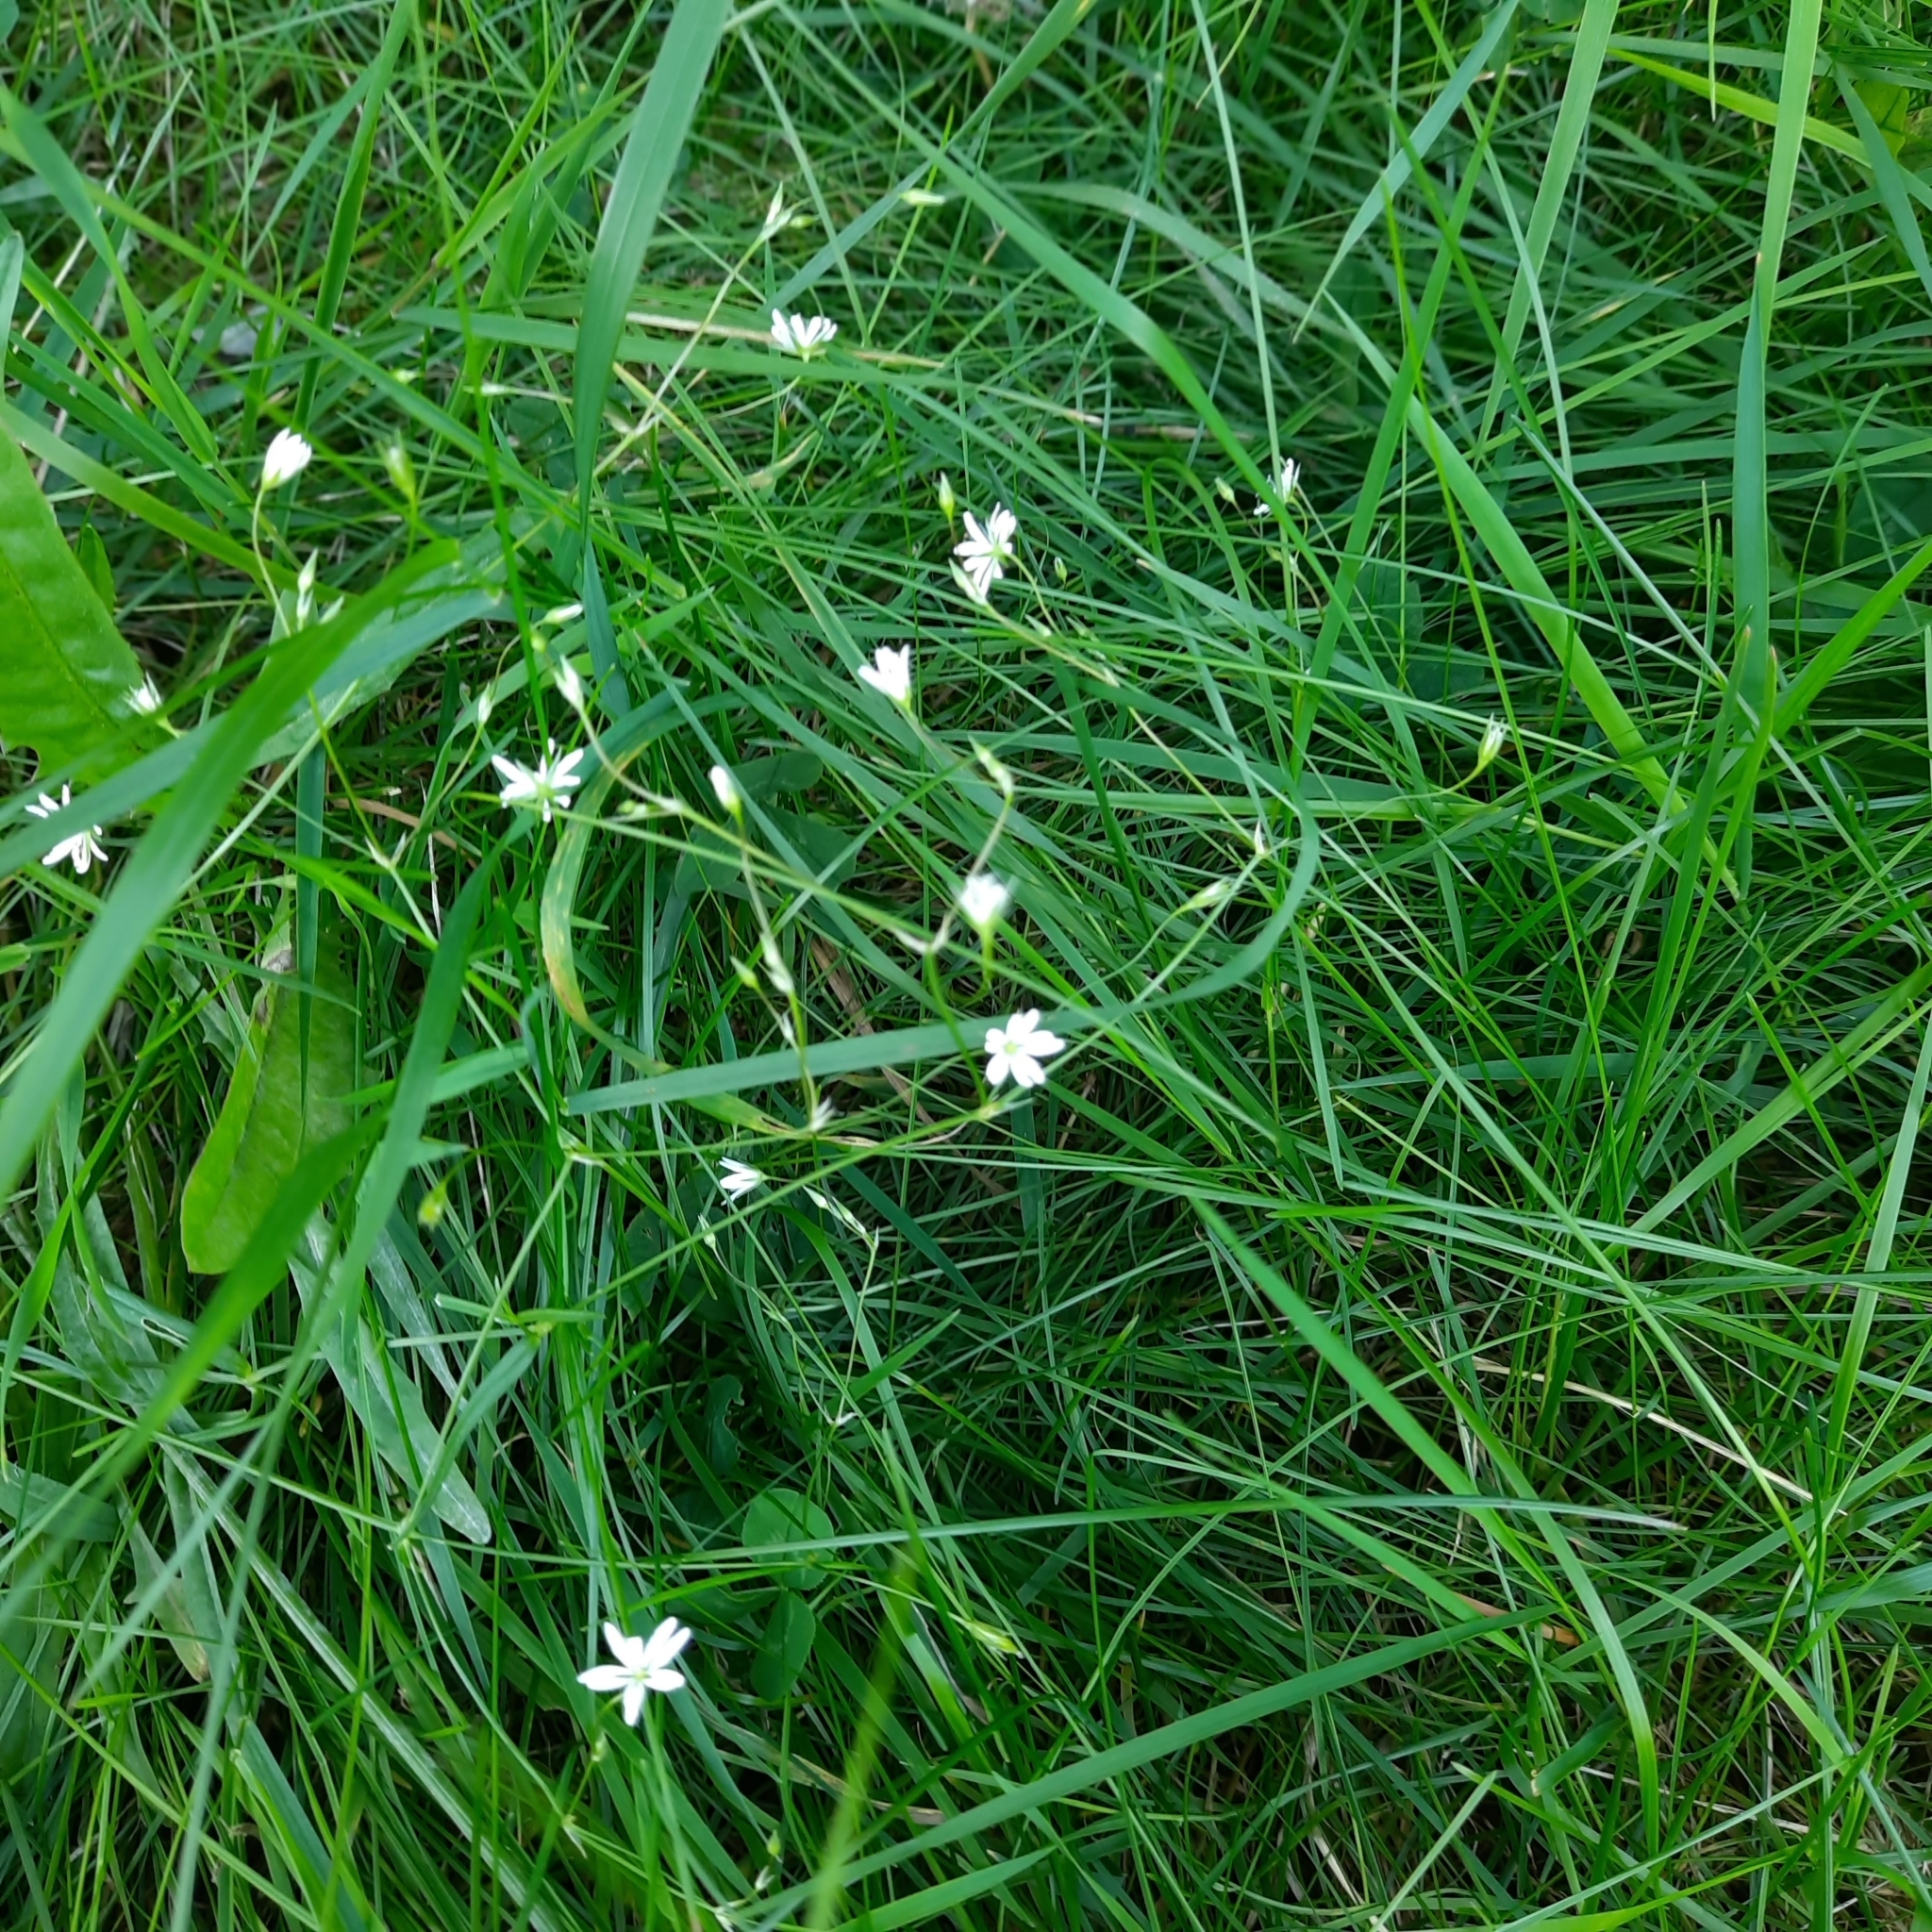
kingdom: Plantae
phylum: Tracheophyta
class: Magnoliopsida
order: Caryophyllales
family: Caryophyllaceae
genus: Stellaria
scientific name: Stellaria graminea
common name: Grass-like starwort
